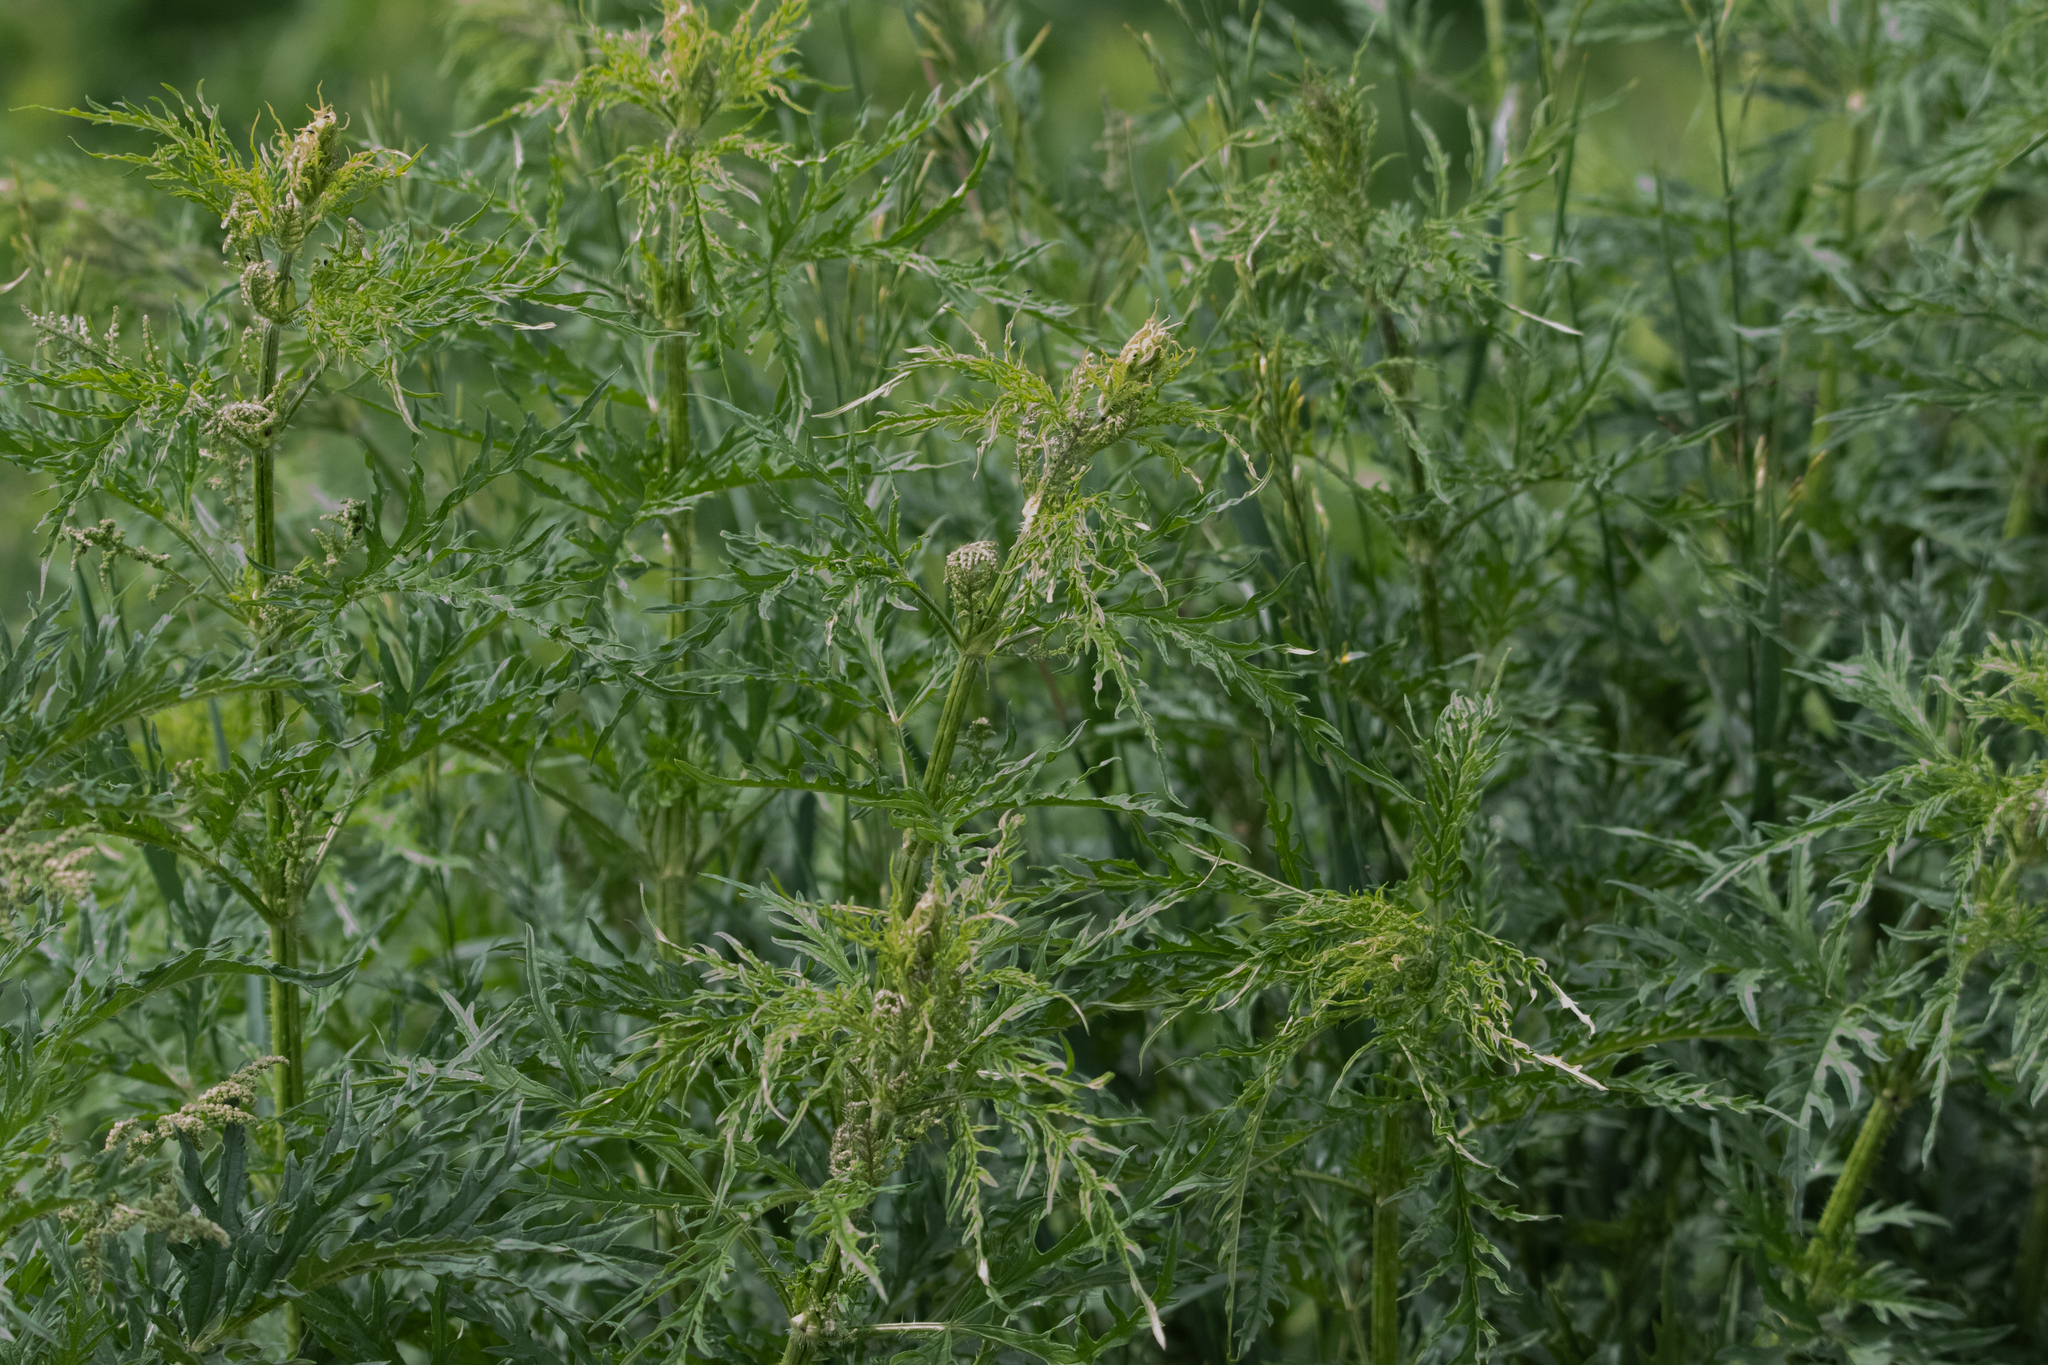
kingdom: Plantae
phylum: Tracheophyta
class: Magnoliopsida
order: Rosales
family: Urticaceae
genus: Urtica
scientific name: Urtica cannabina
